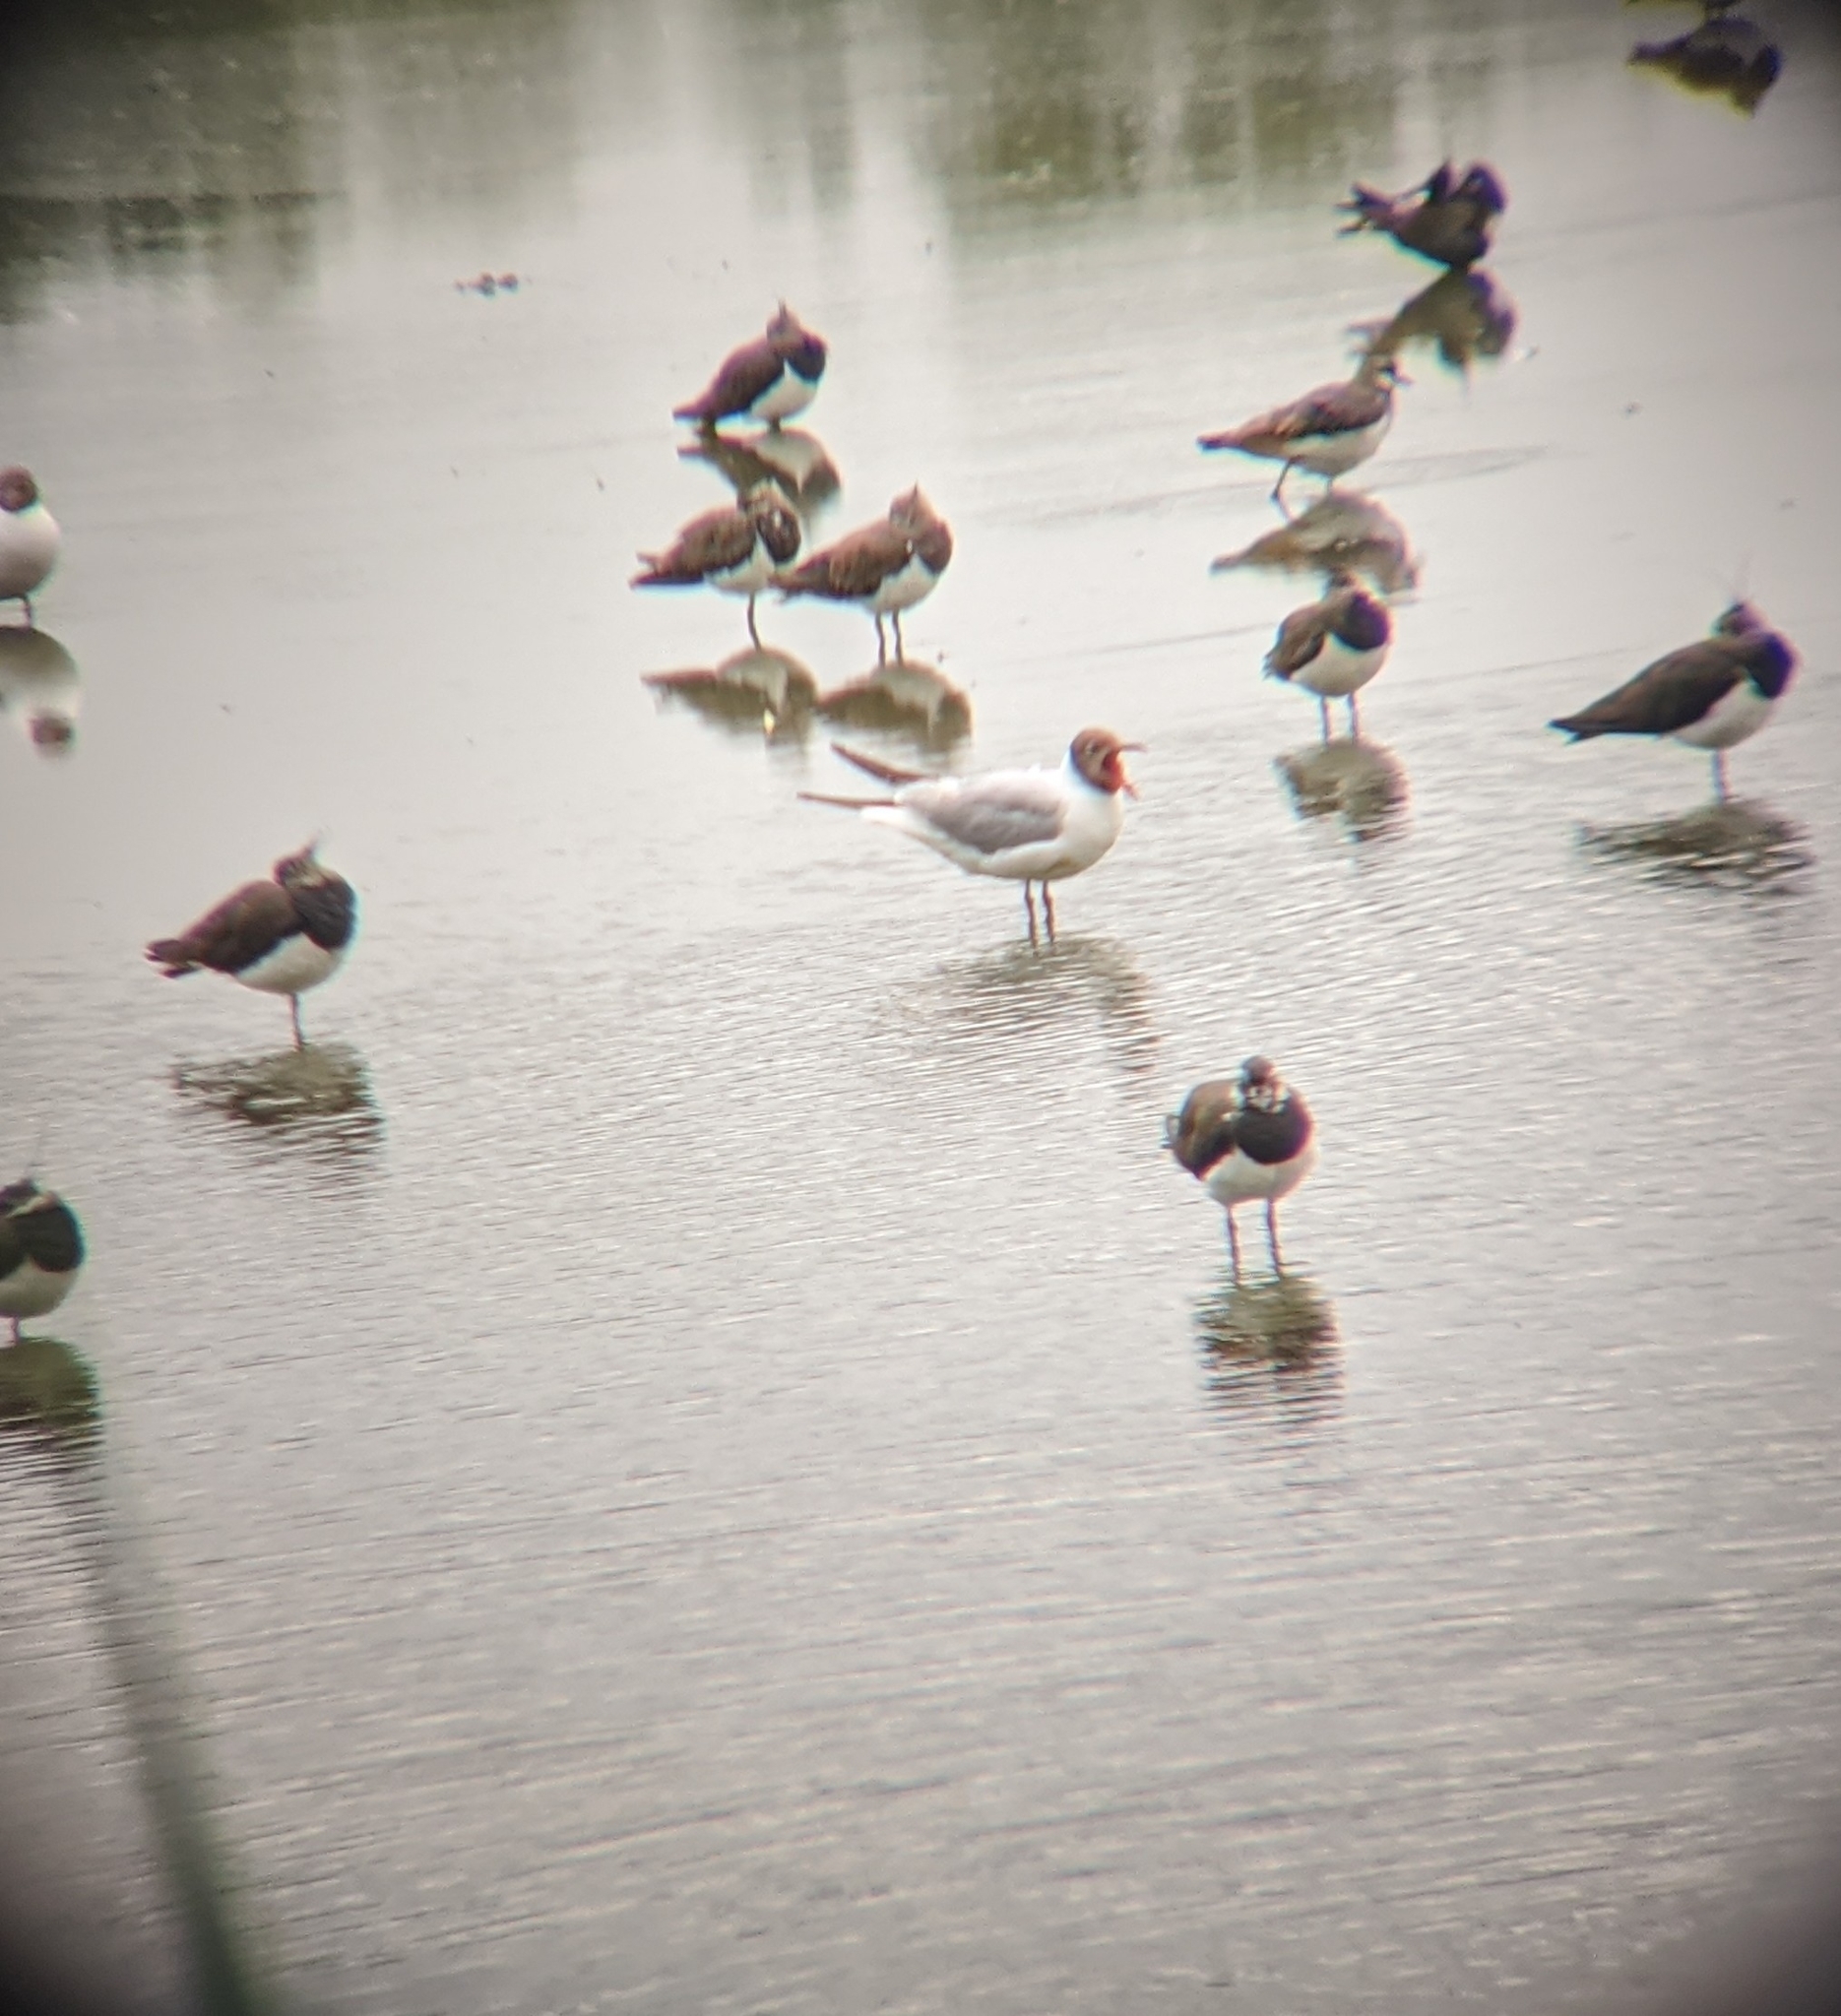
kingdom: Animalia
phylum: Chordata
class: Aves
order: Charadriiformes
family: Laridae
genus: Chroicocephalus
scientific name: Chroicocephalus ridibundus
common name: Black-headed gull
